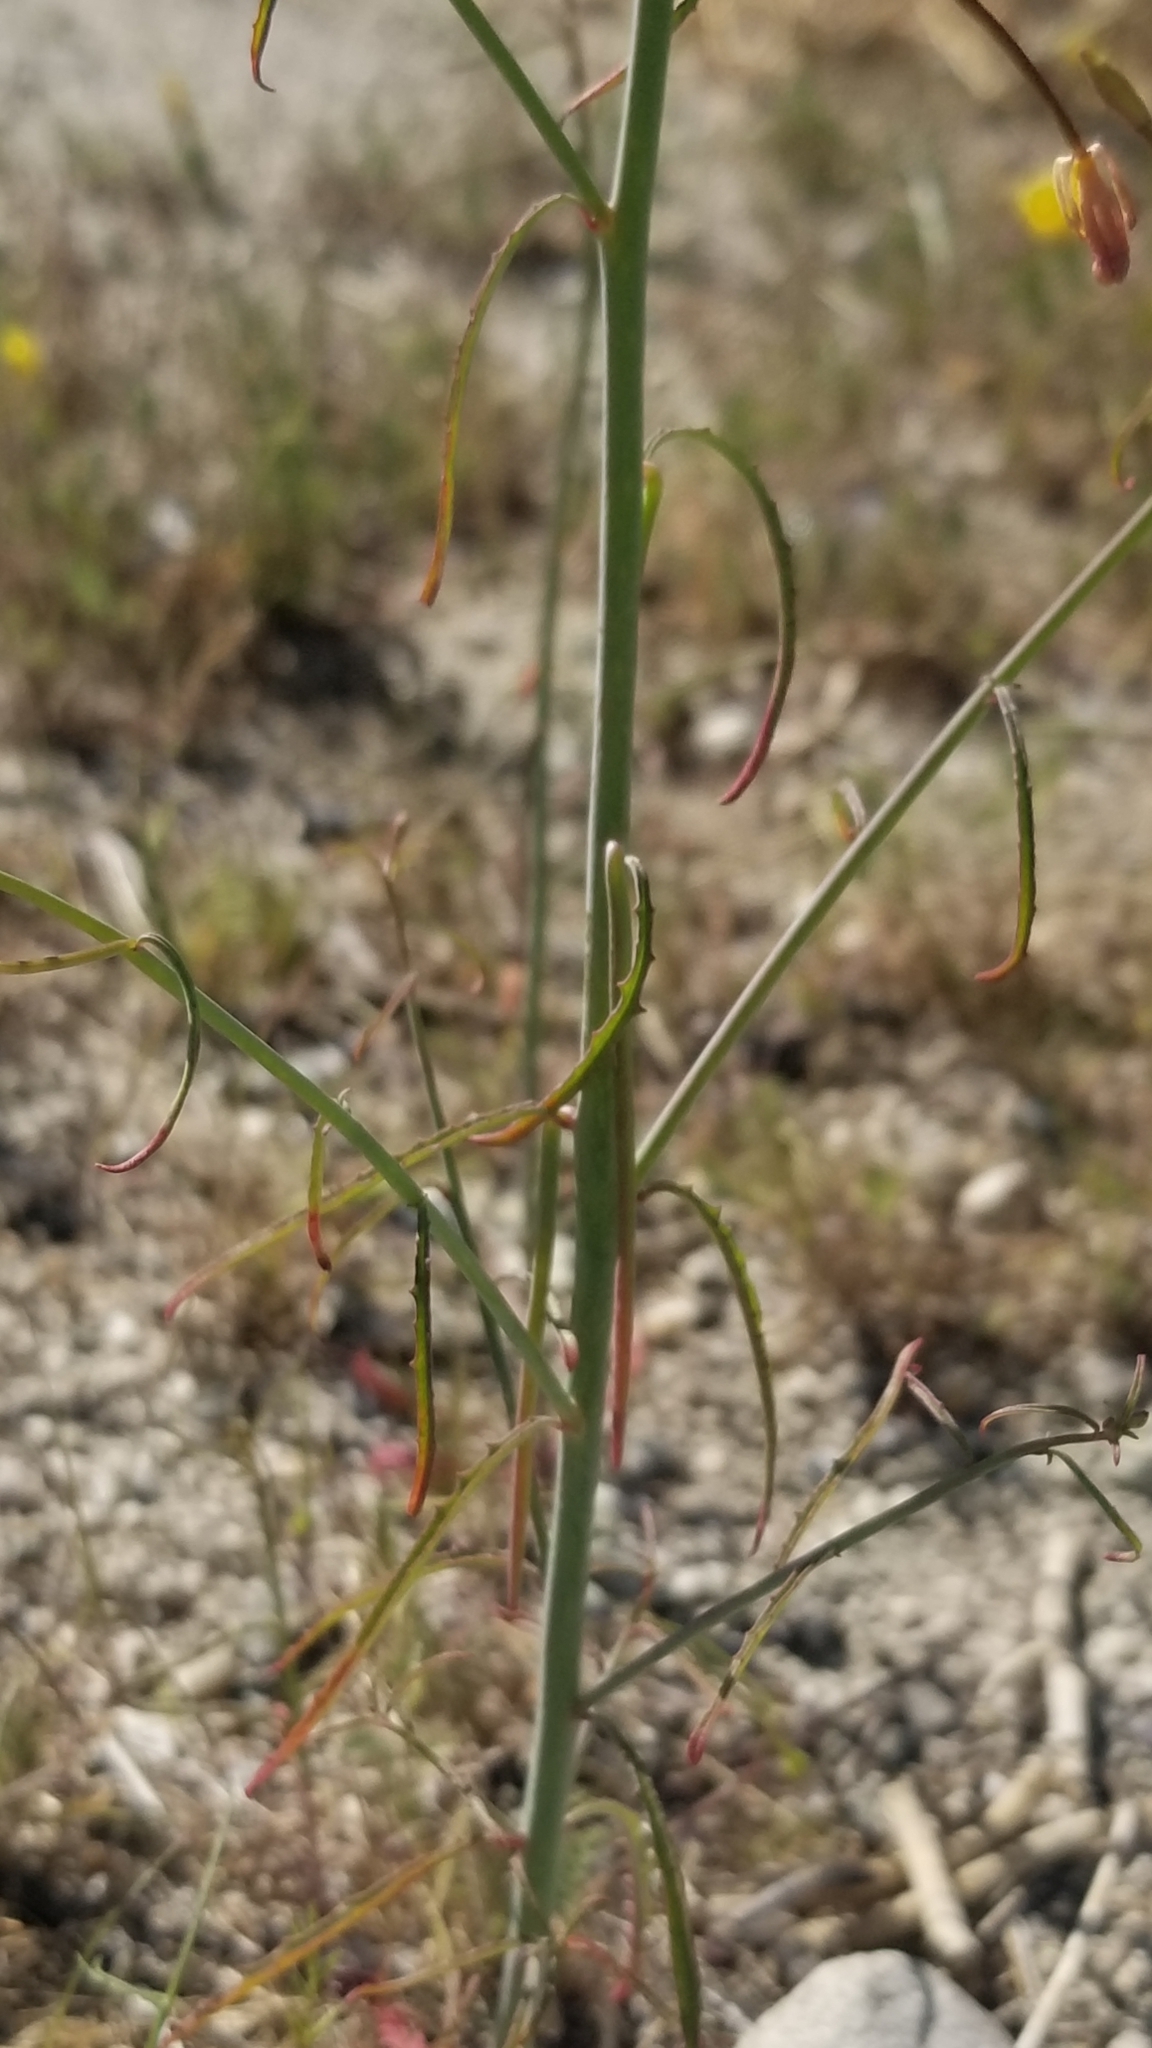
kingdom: Plantae
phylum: Tracheophyta
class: Magnoliopsida
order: Myrtales
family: Onagraceae
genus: Eulobus
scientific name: Eulobus californicus
